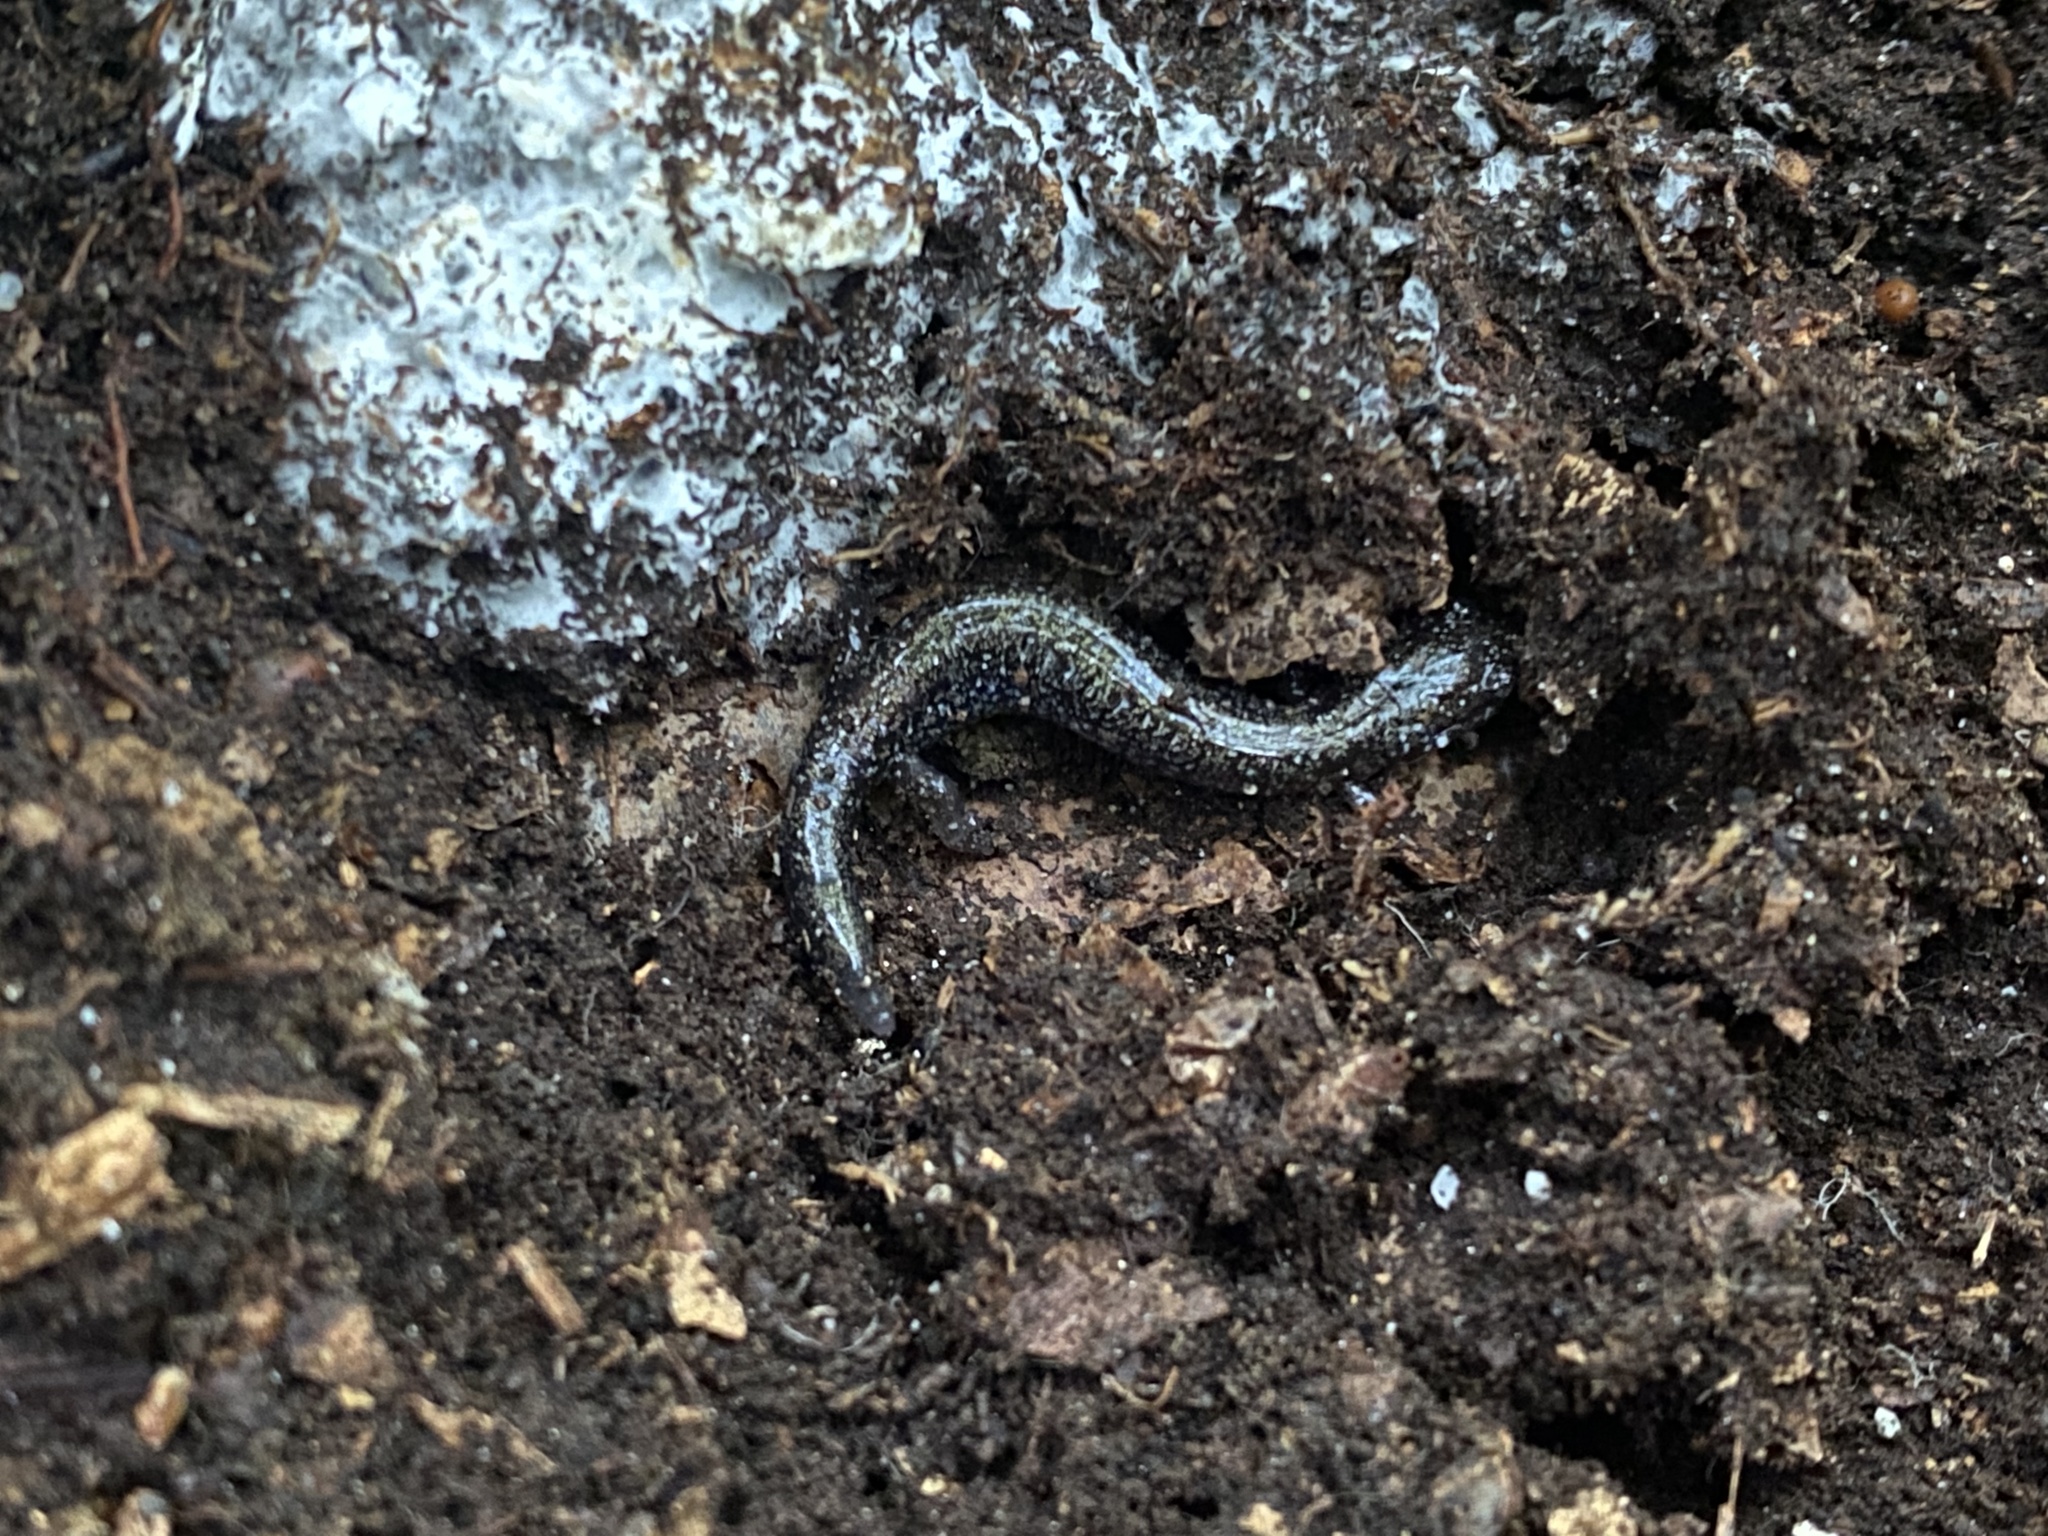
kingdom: Animalia
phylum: Chordata
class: Amphibia
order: Caudata
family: Plethodontidae
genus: Plethodon
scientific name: Plethodon cinereus
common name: Redback salamander
